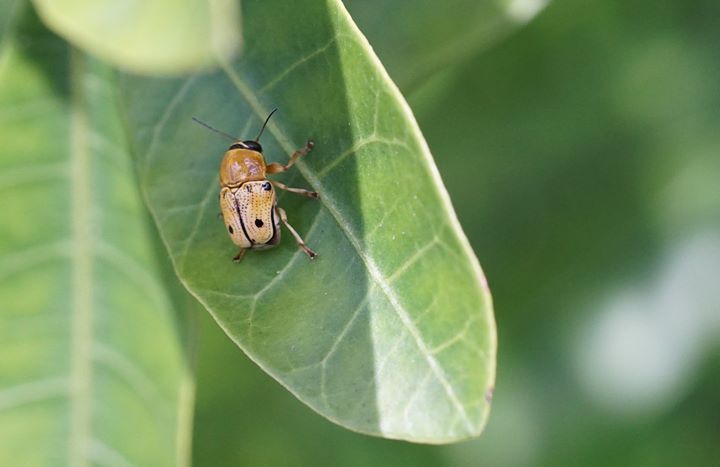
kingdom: Animalia
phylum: Arthropoda
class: Insecta
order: Coleoptera
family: Chrysomelidae
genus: Griburius
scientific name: Griburius larvatus
